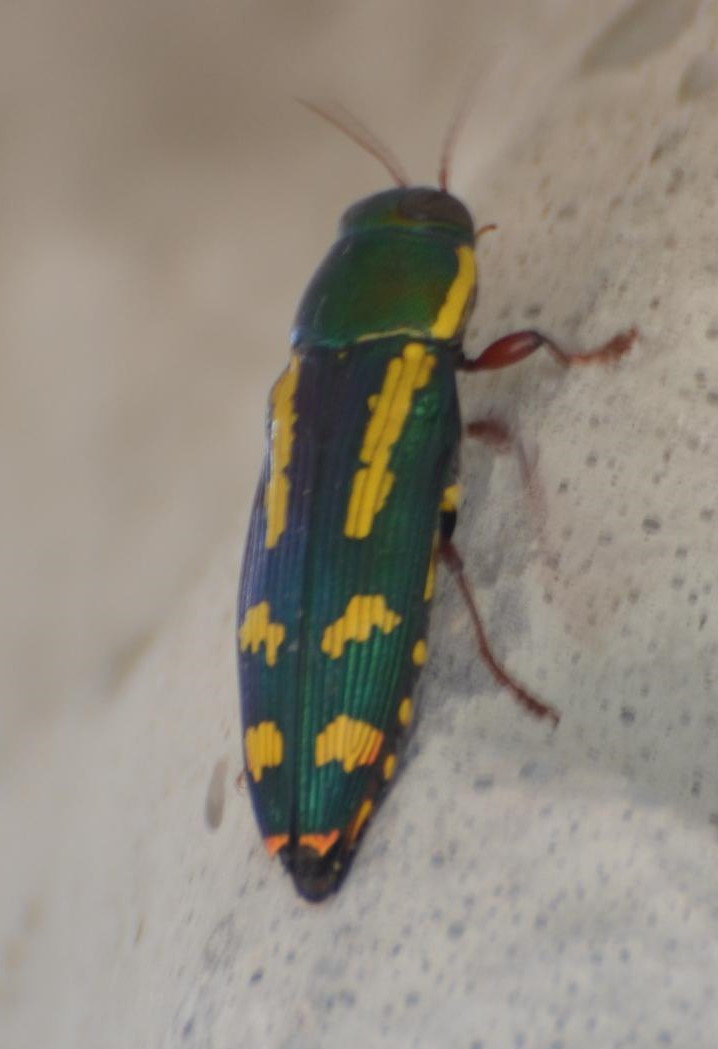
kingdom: Animalia
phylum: Arthropoda
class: Insecta
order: Coleoptera
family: Buprestidae
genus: Buprestis
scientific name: Buprestis rufipes
